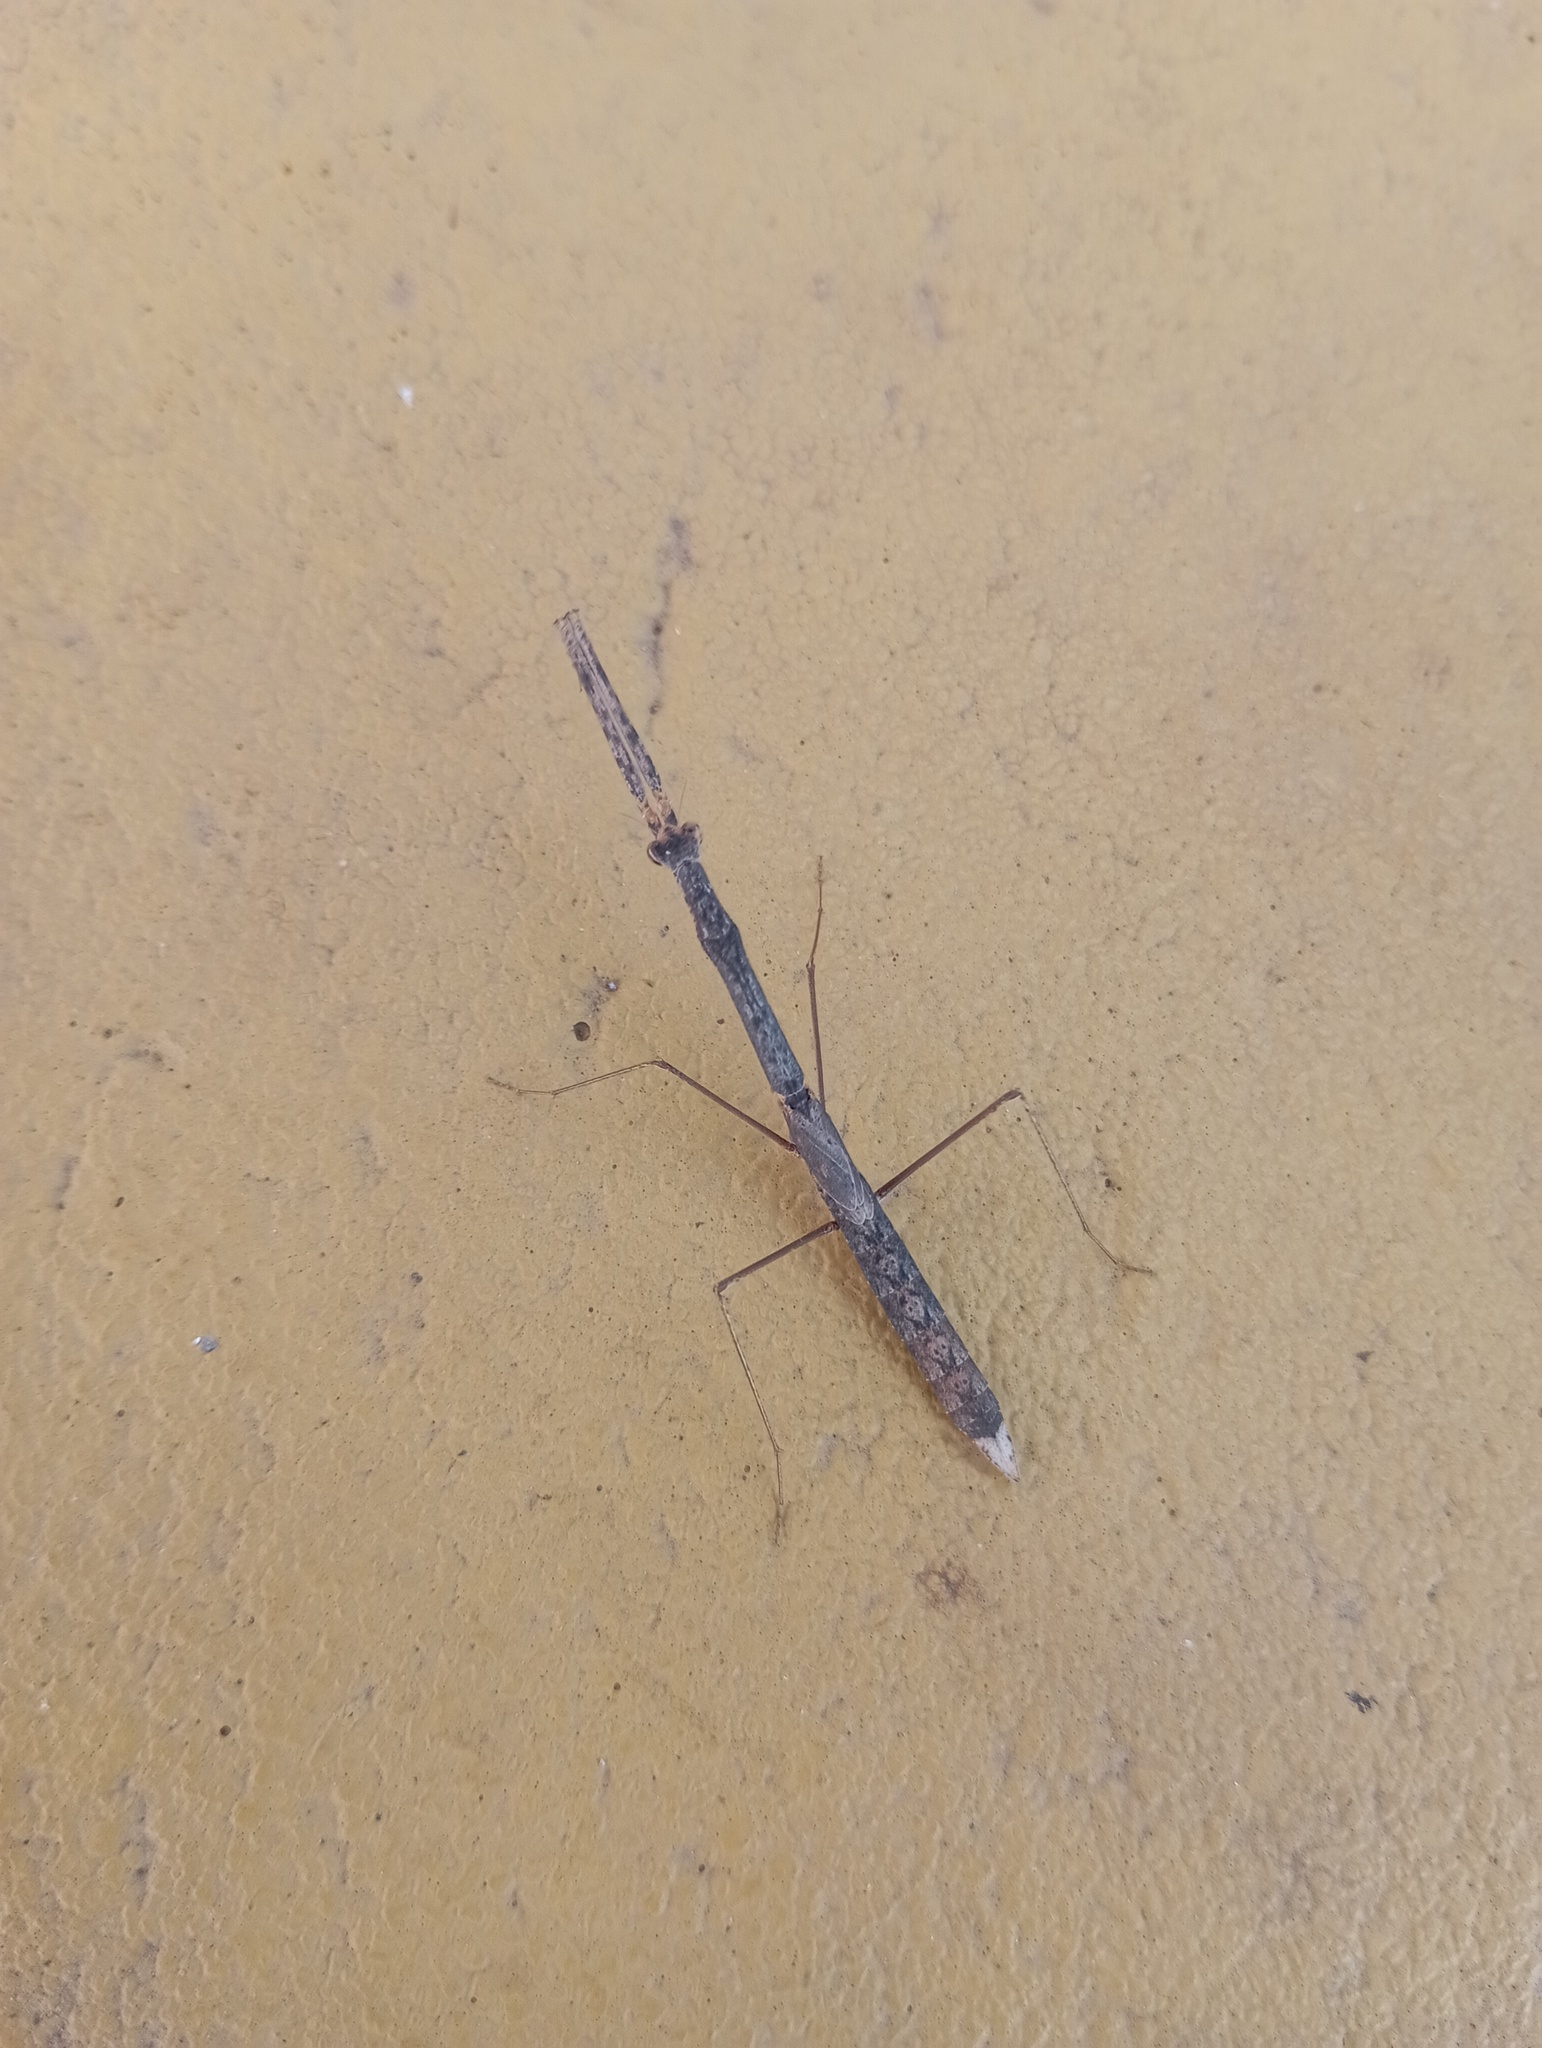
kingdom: Animalia
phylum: Arthropoda
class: Insecta
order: Mantodea
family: Eremiaphilidae
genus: Parathespis
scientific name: Parathespis humbertiana
